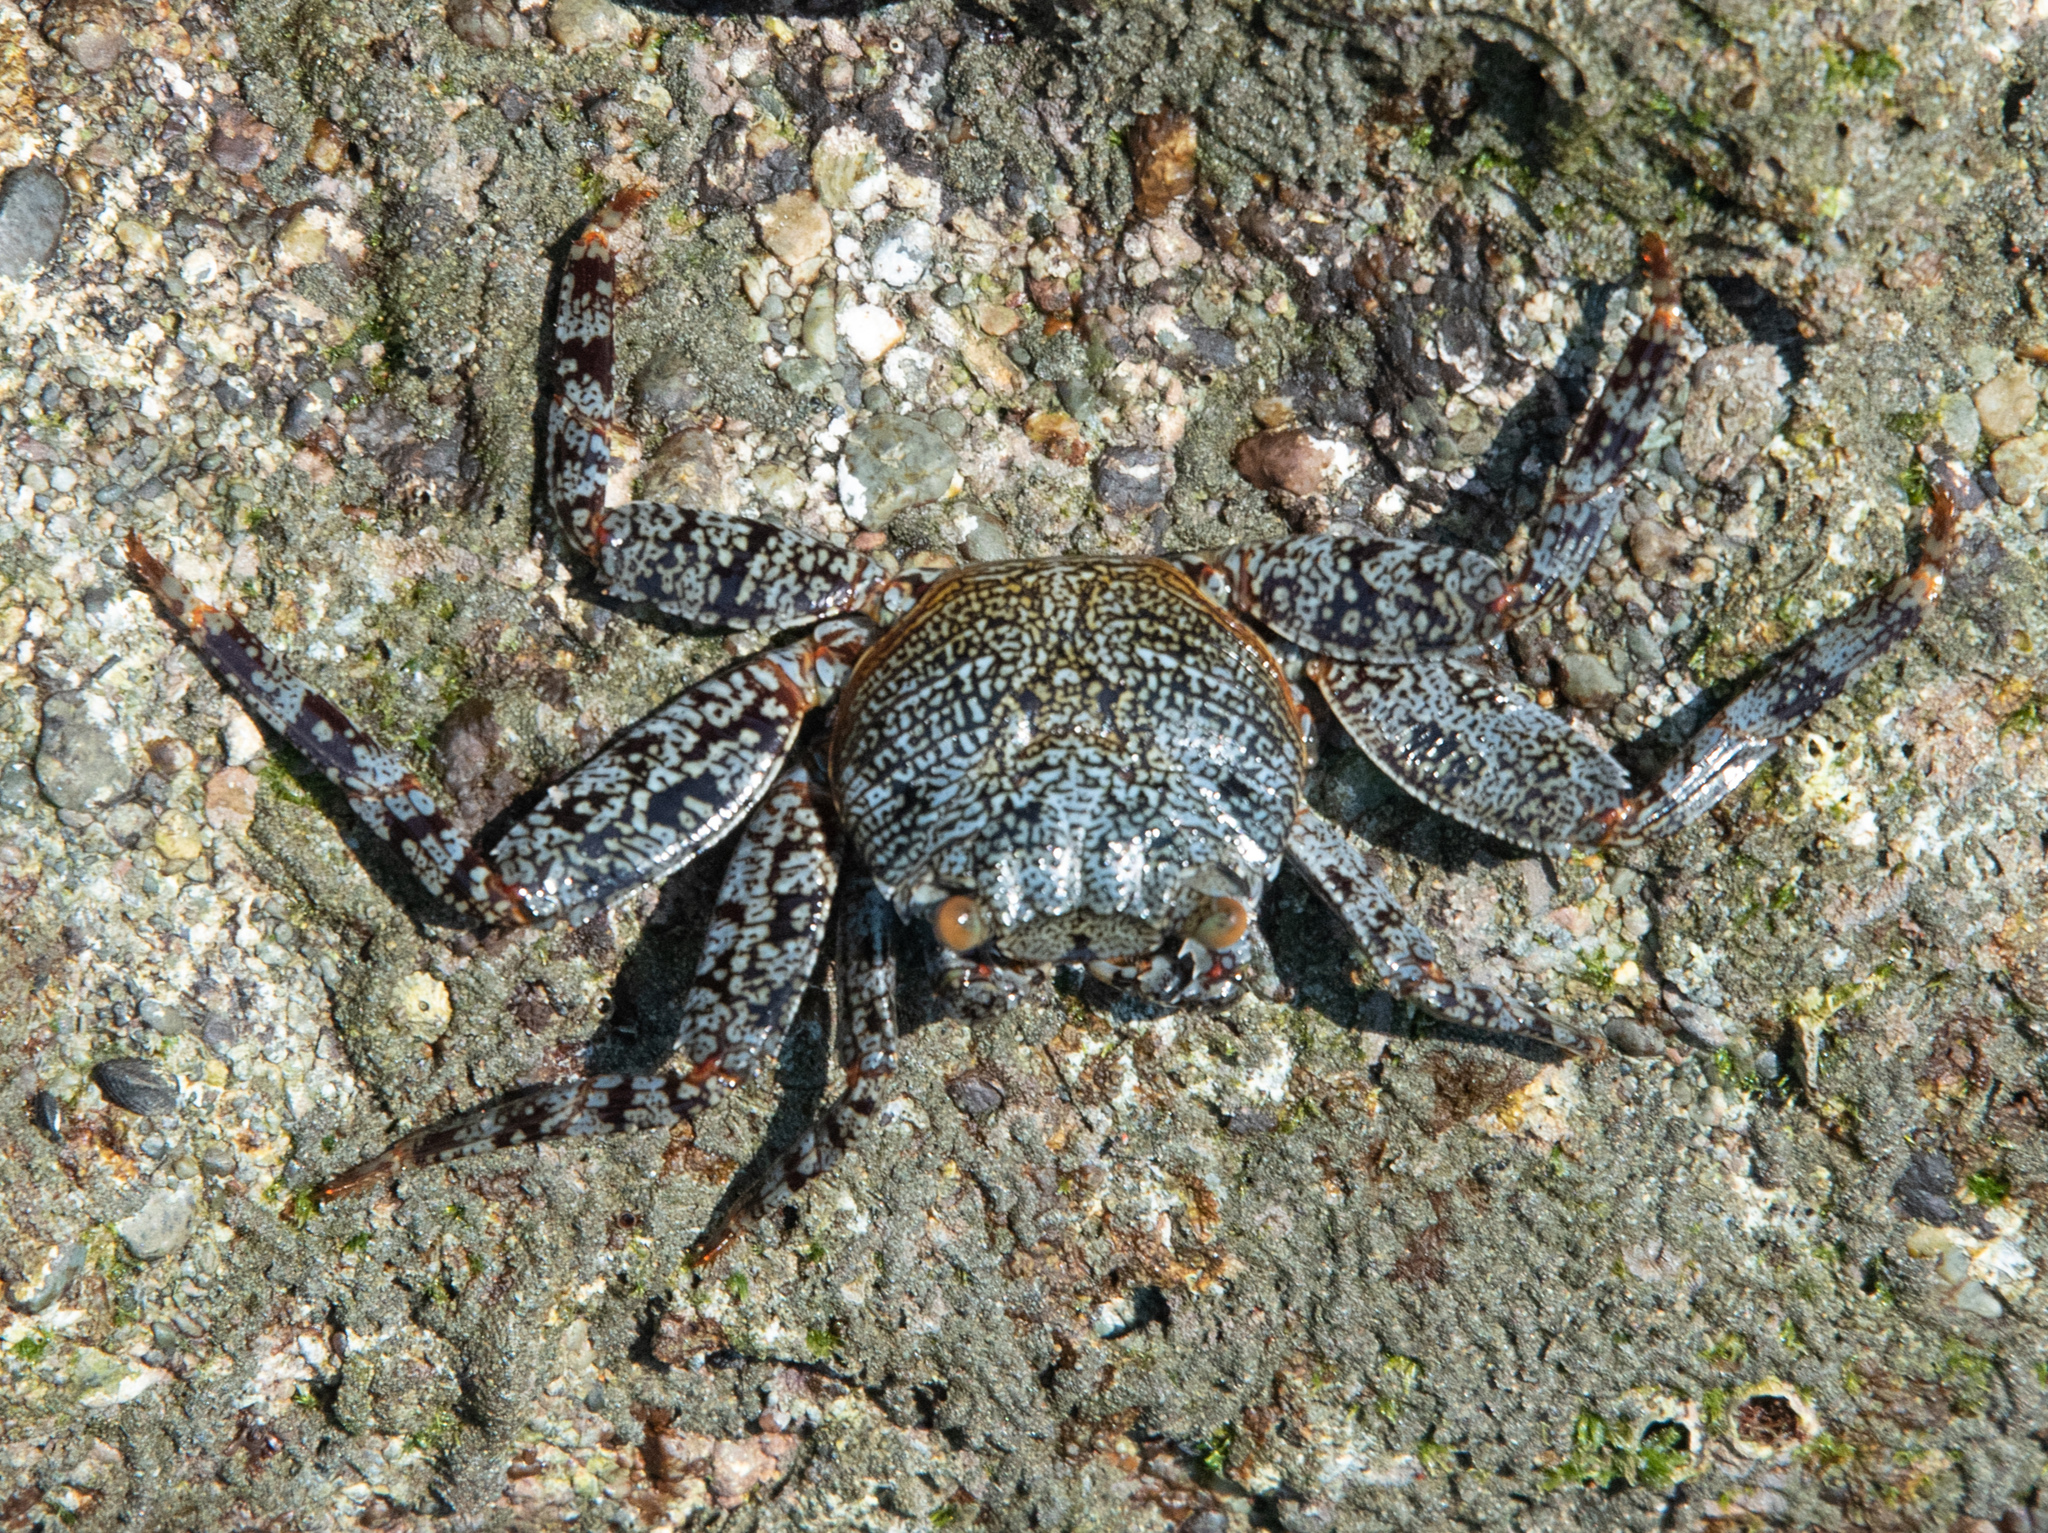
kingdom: Animalia
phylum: Arthropoda
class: Malacostraca
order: Decapoda
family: Grapsidae
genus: Grapsus
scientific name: Grapsus grapsus
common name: Sally lightfoot
